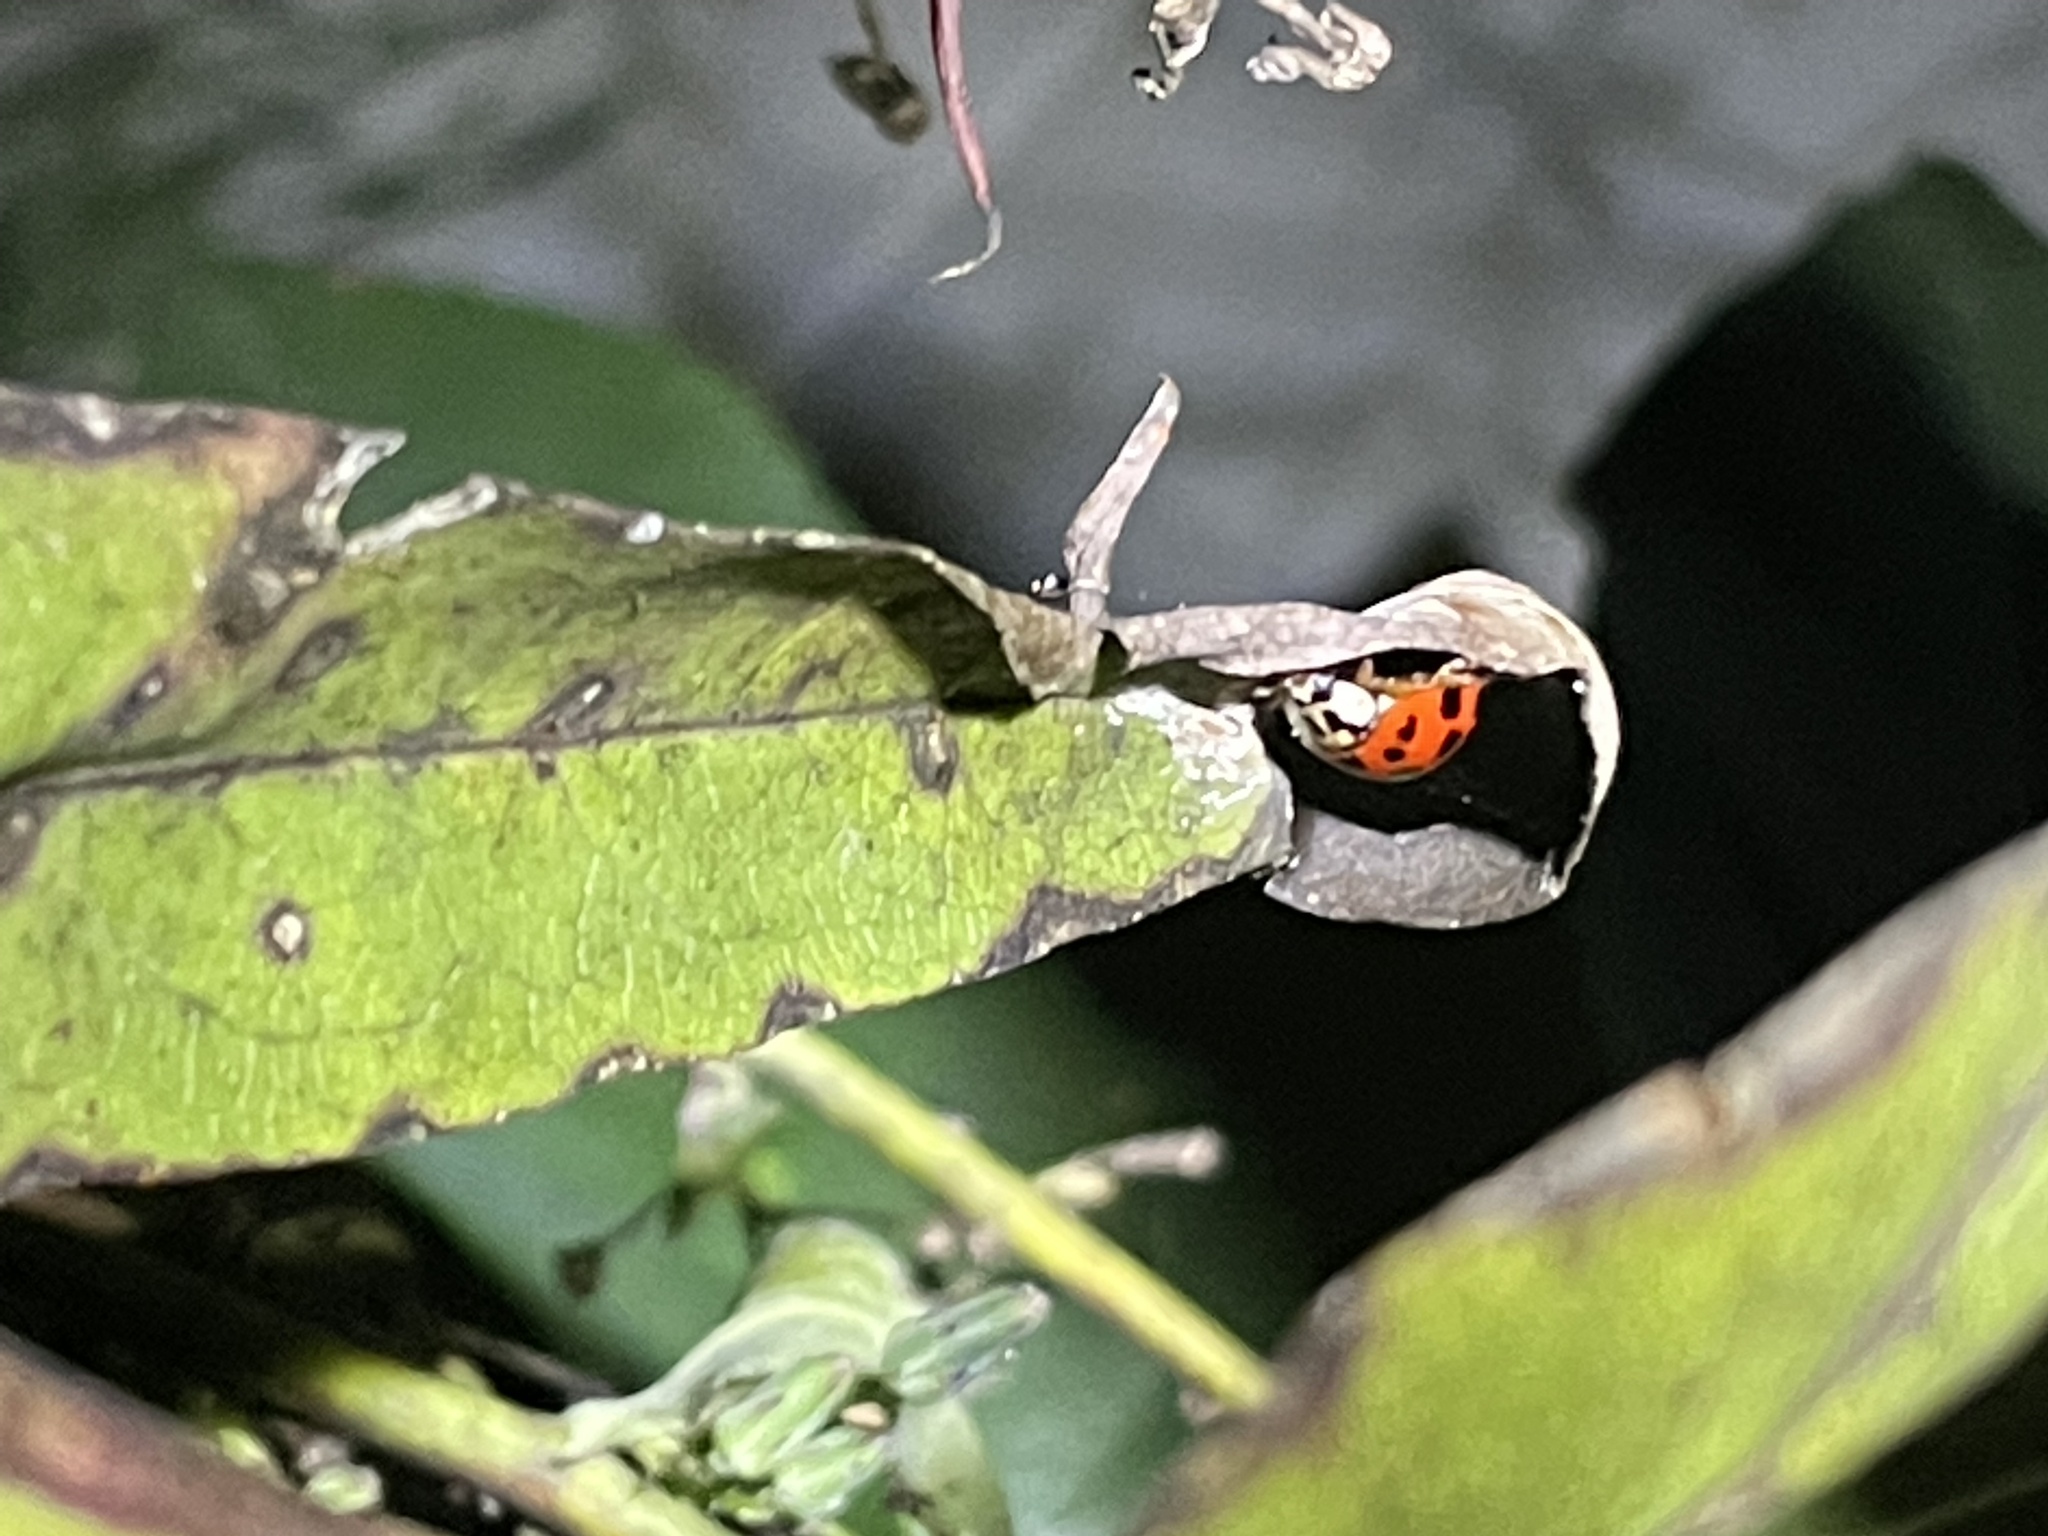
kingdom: Animalia
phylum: Arthropoda
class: Insecta
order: Coleoptera
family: Coccinellidae
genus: Harmonia
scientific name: Harmonia axyridis
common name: Harlequin ladybird
